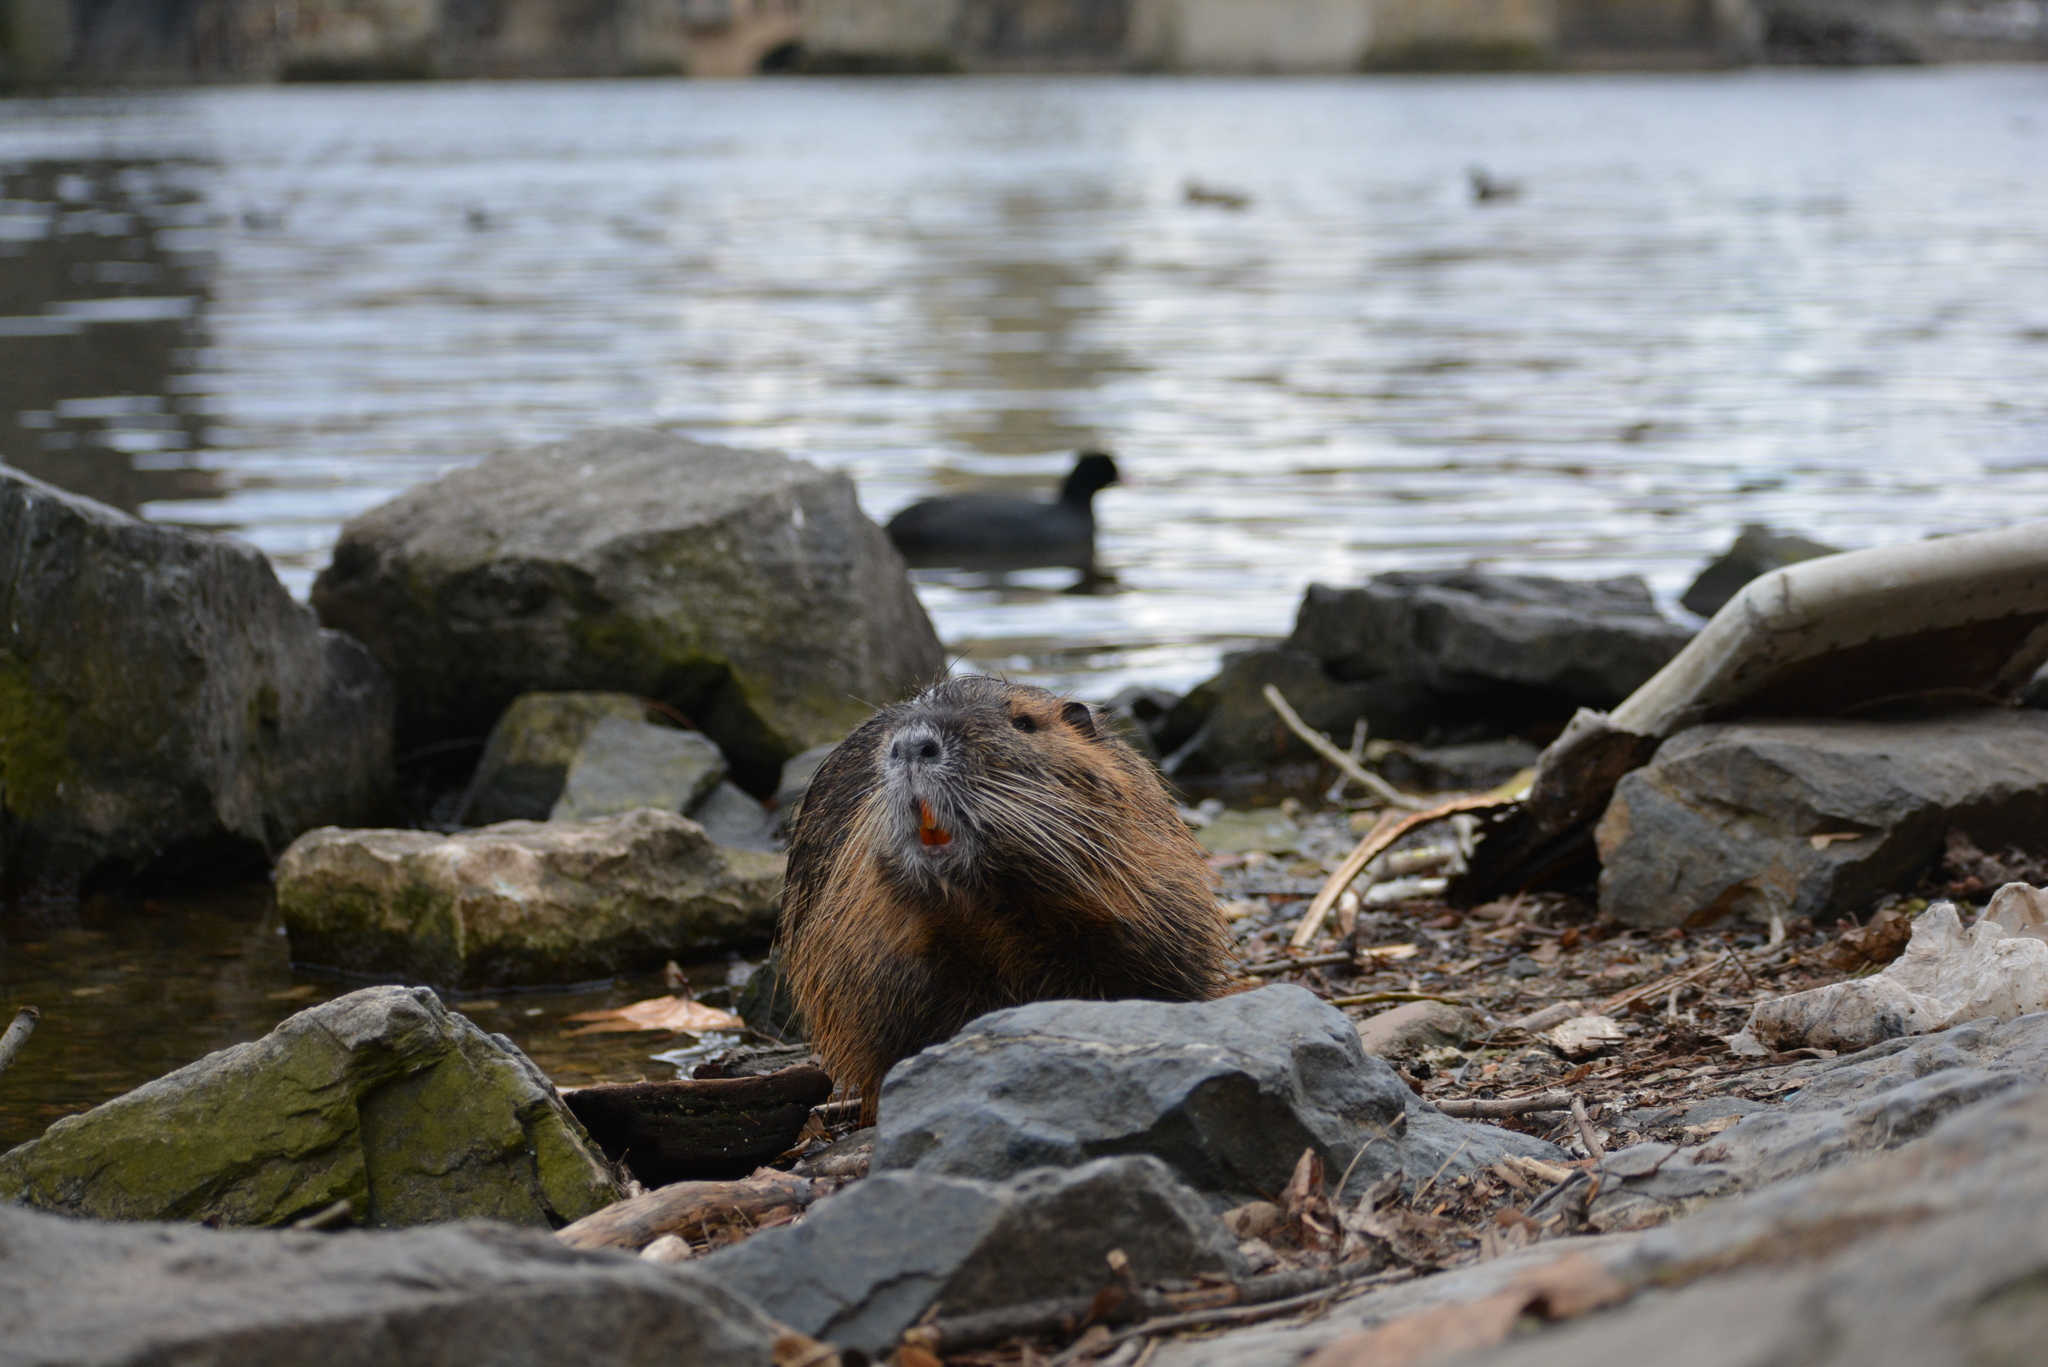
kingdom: Animalia
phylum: Chordata
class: Mammalia
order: Rodentia
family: Myocastoridae
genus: Myocastor
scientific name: Myocastor coypus
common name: Coypu
